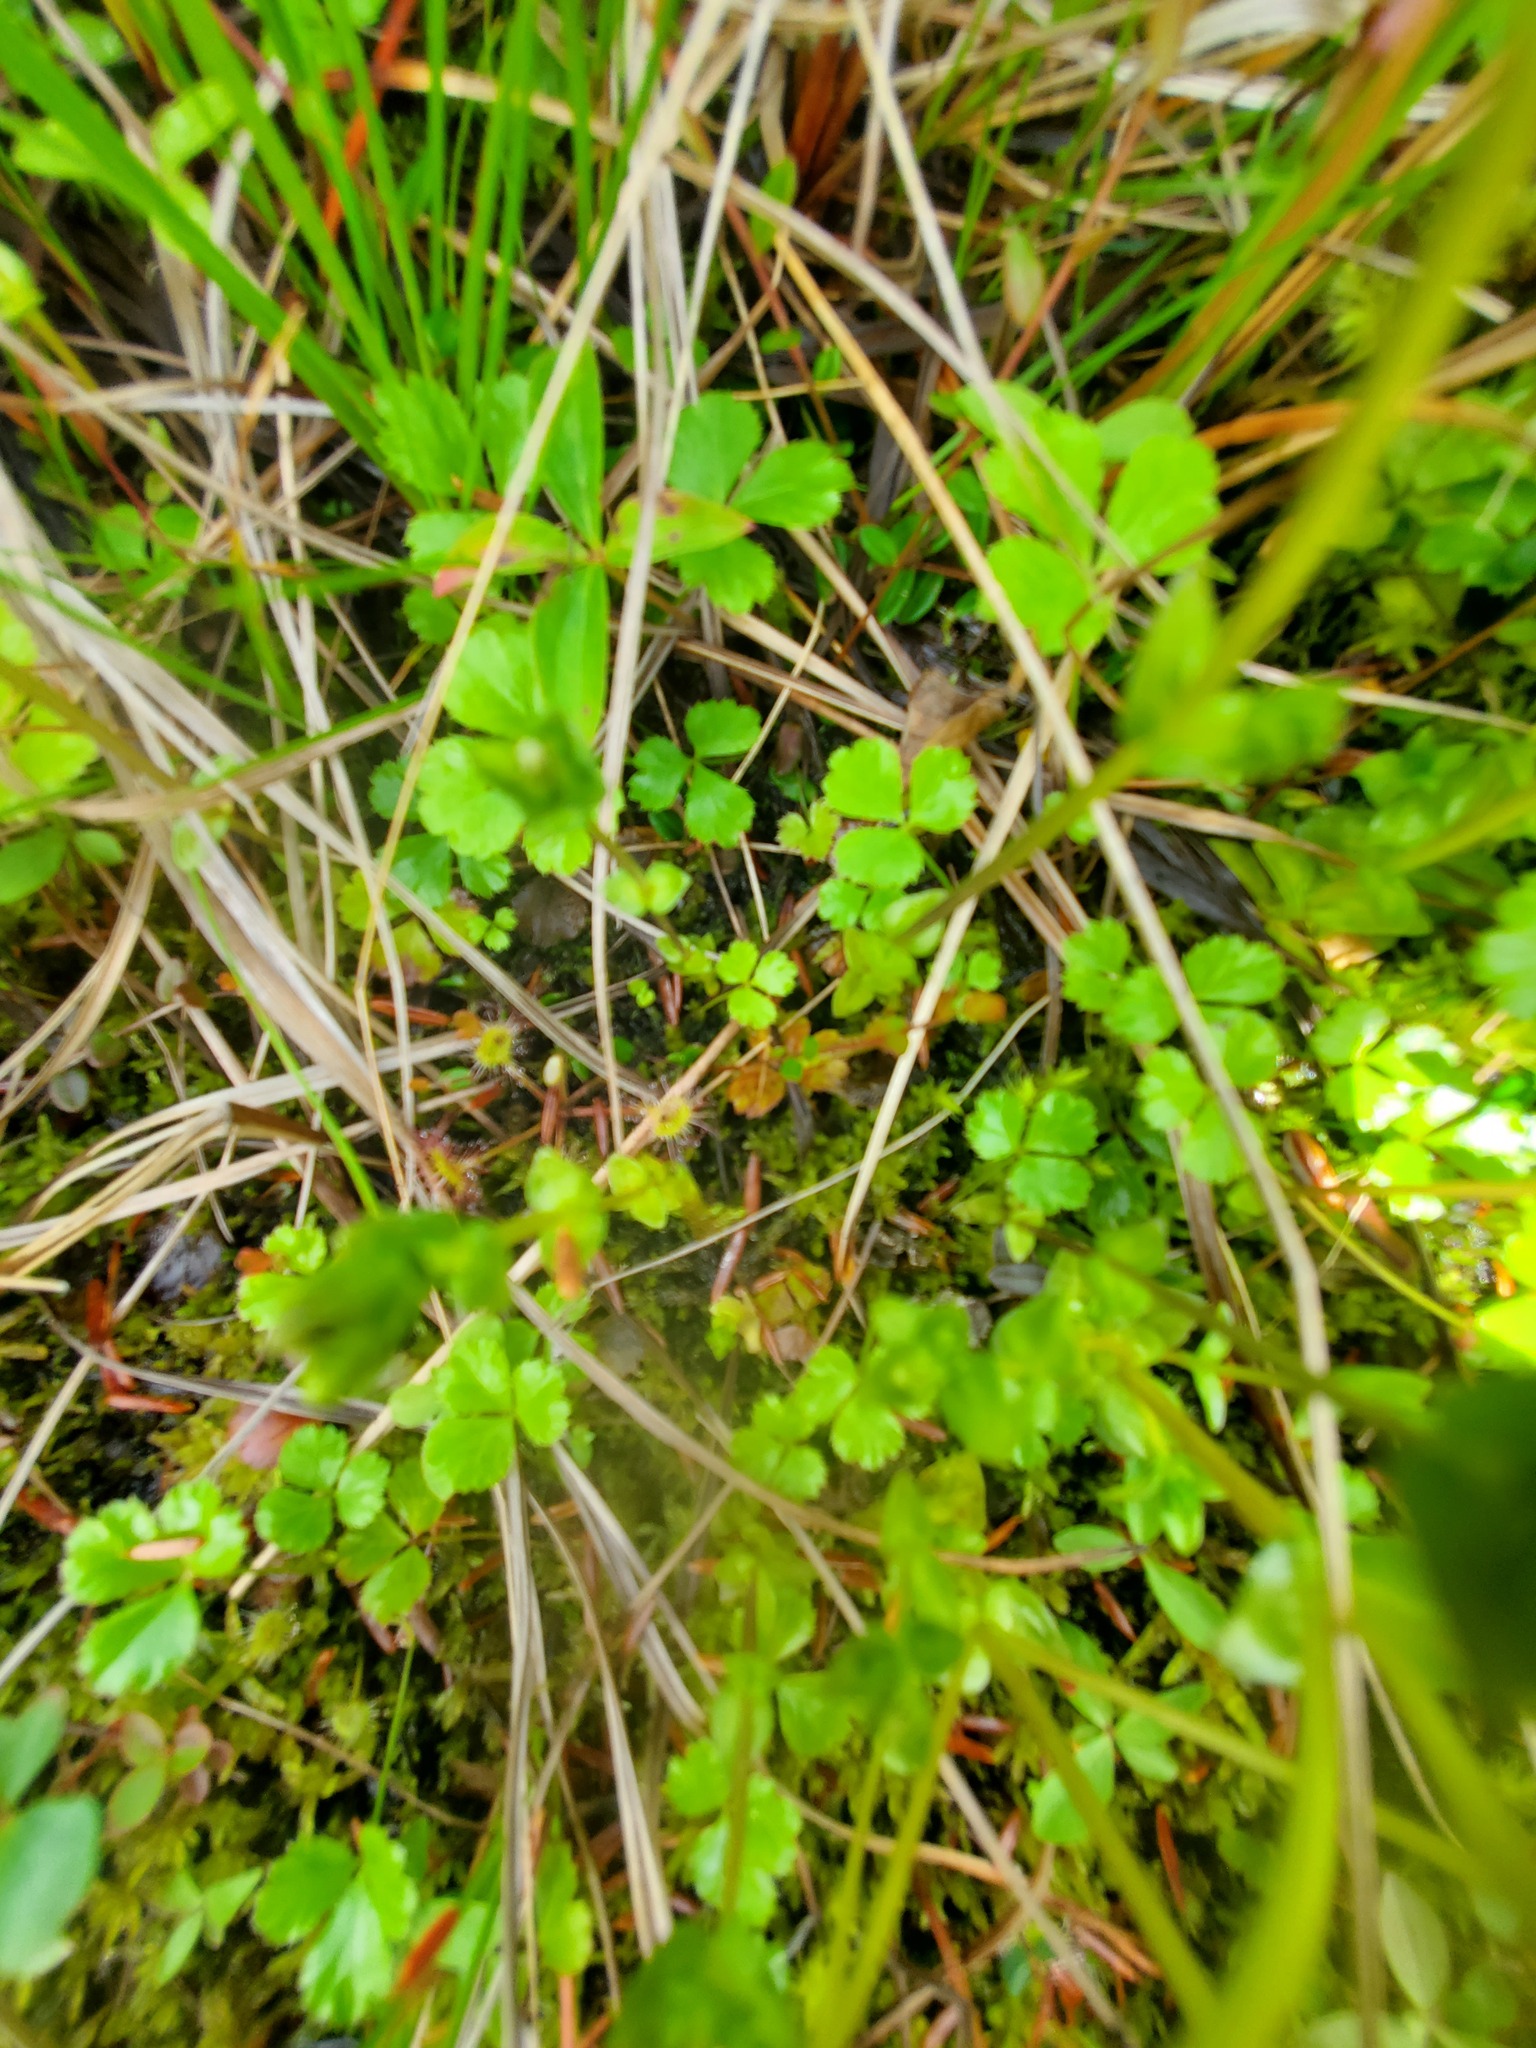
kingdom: Plantae
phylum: Tracheophyta
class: Magnoliopsida
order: Ranunculales
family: Ranunculaceae
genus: Coptis
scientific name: Coptis trifolia
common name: Canker-root
